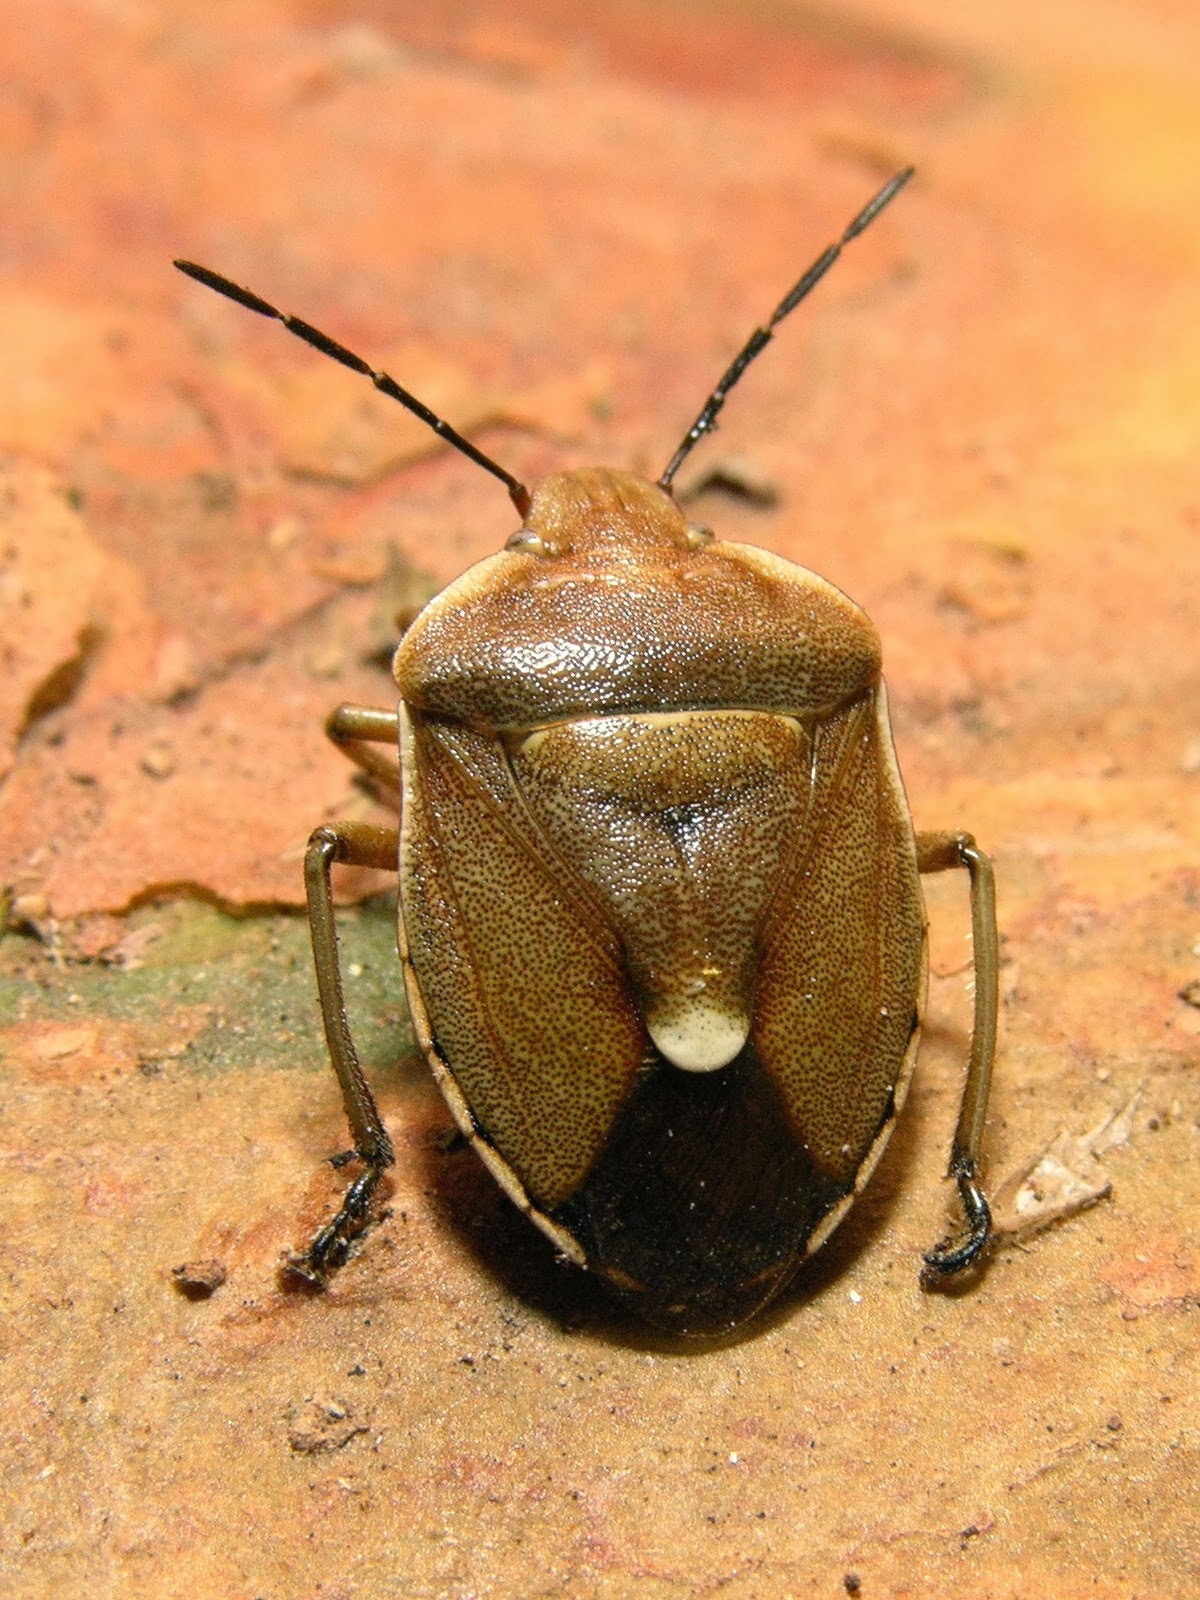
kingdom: Animalia
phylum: Arthropoda
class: Insecta
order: Hemiptera
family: Pentatomidae
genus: Chlorochroa
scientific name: Chlorochroa pinicola
